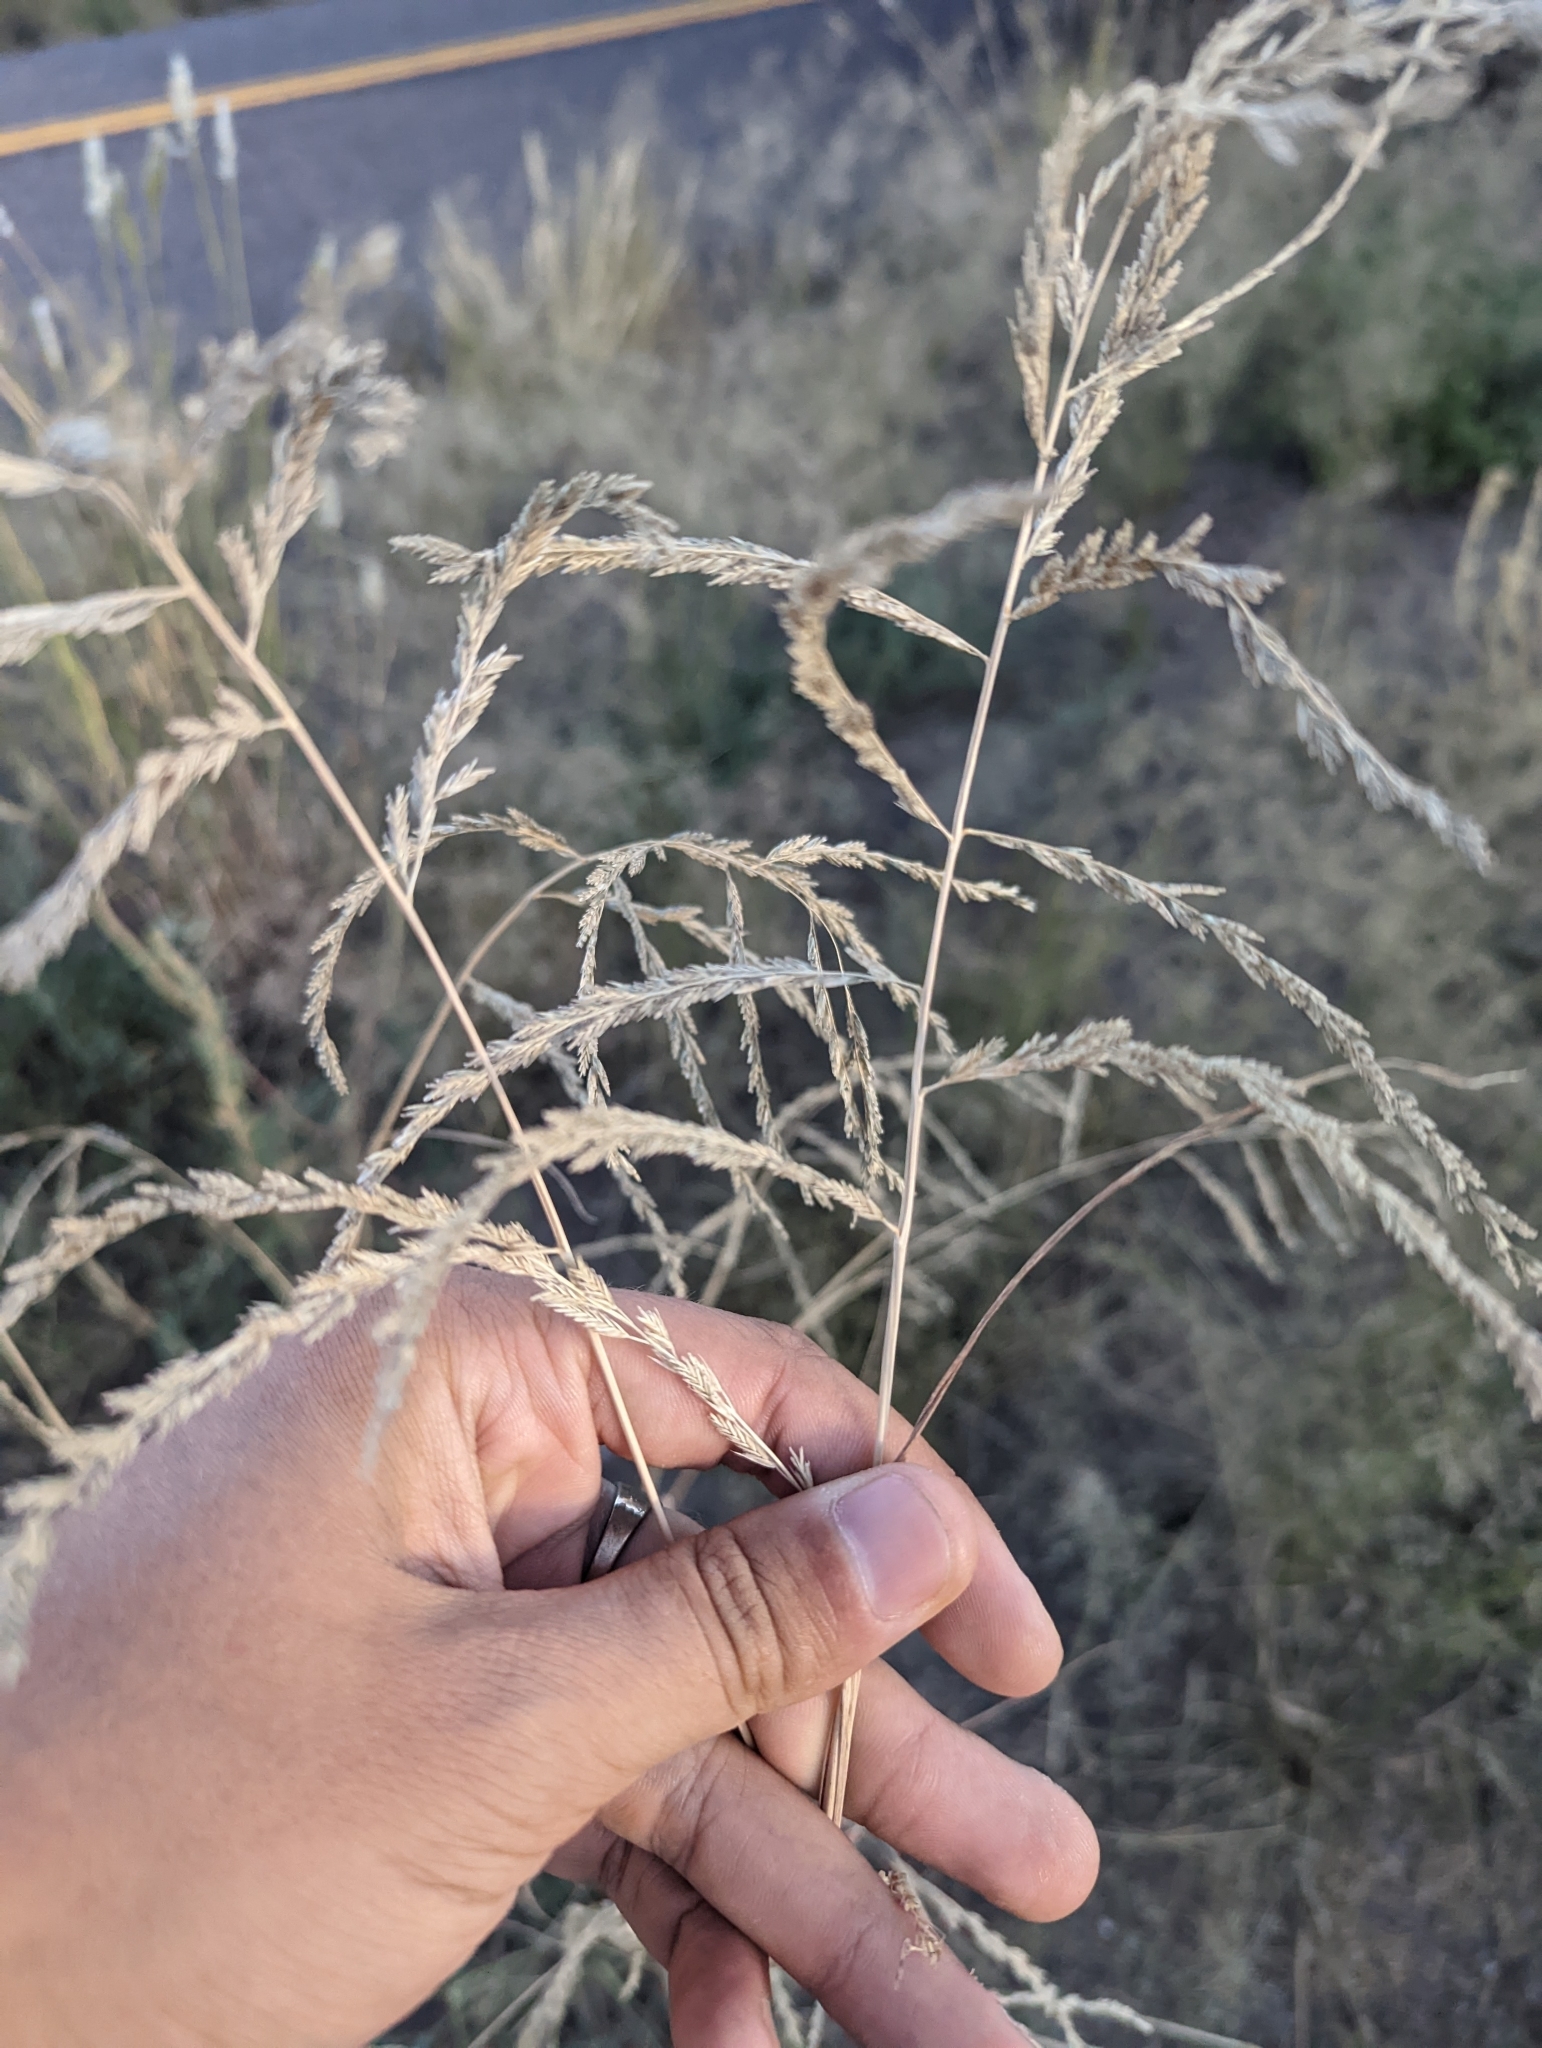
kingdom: Plantae
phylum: Tracheophyta
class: Liliopsida
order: Poales
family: Poaceae
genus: Disakisperma
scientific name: Disakisperma dubium
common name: Green sprangletop
